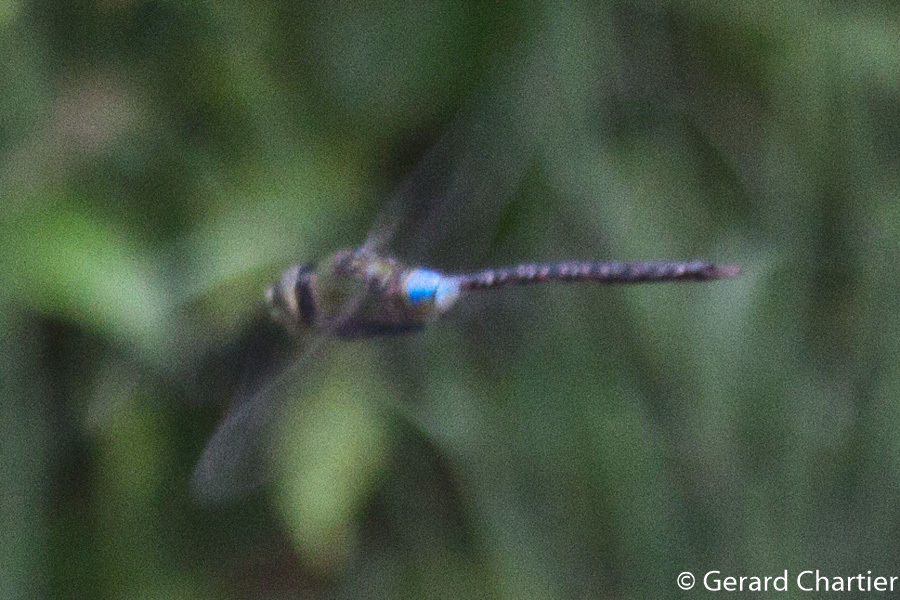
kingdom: Animalia
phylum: Arthropoda
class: Insecta
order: Odonata
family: Aeshnidae
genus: Anax
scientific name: Anax guttatus
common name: Emperor
